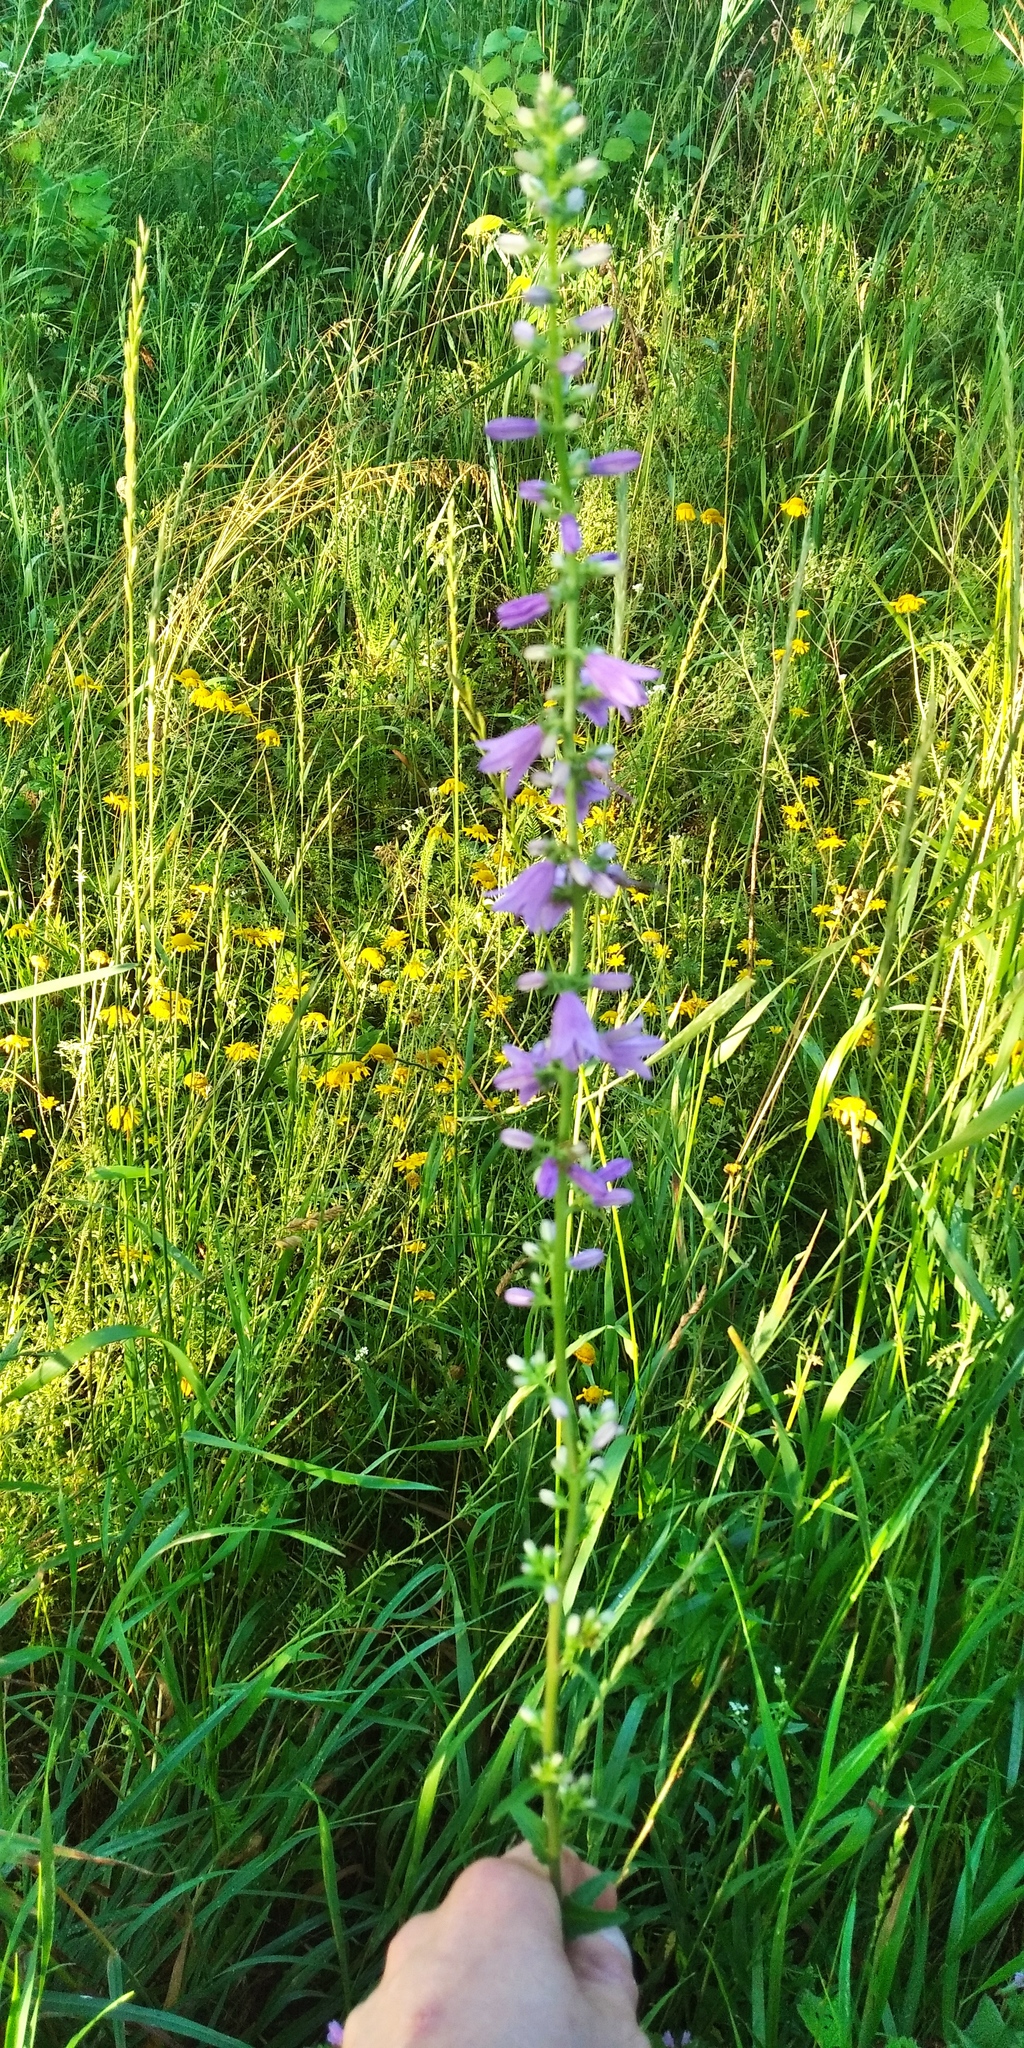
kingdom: Plantae
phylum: Tracheophyta
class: Magnoliopsida
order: Asterales
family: Campanulaceae
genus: Campanula
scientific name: Campanula bononiensis
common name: Pale bellflower
